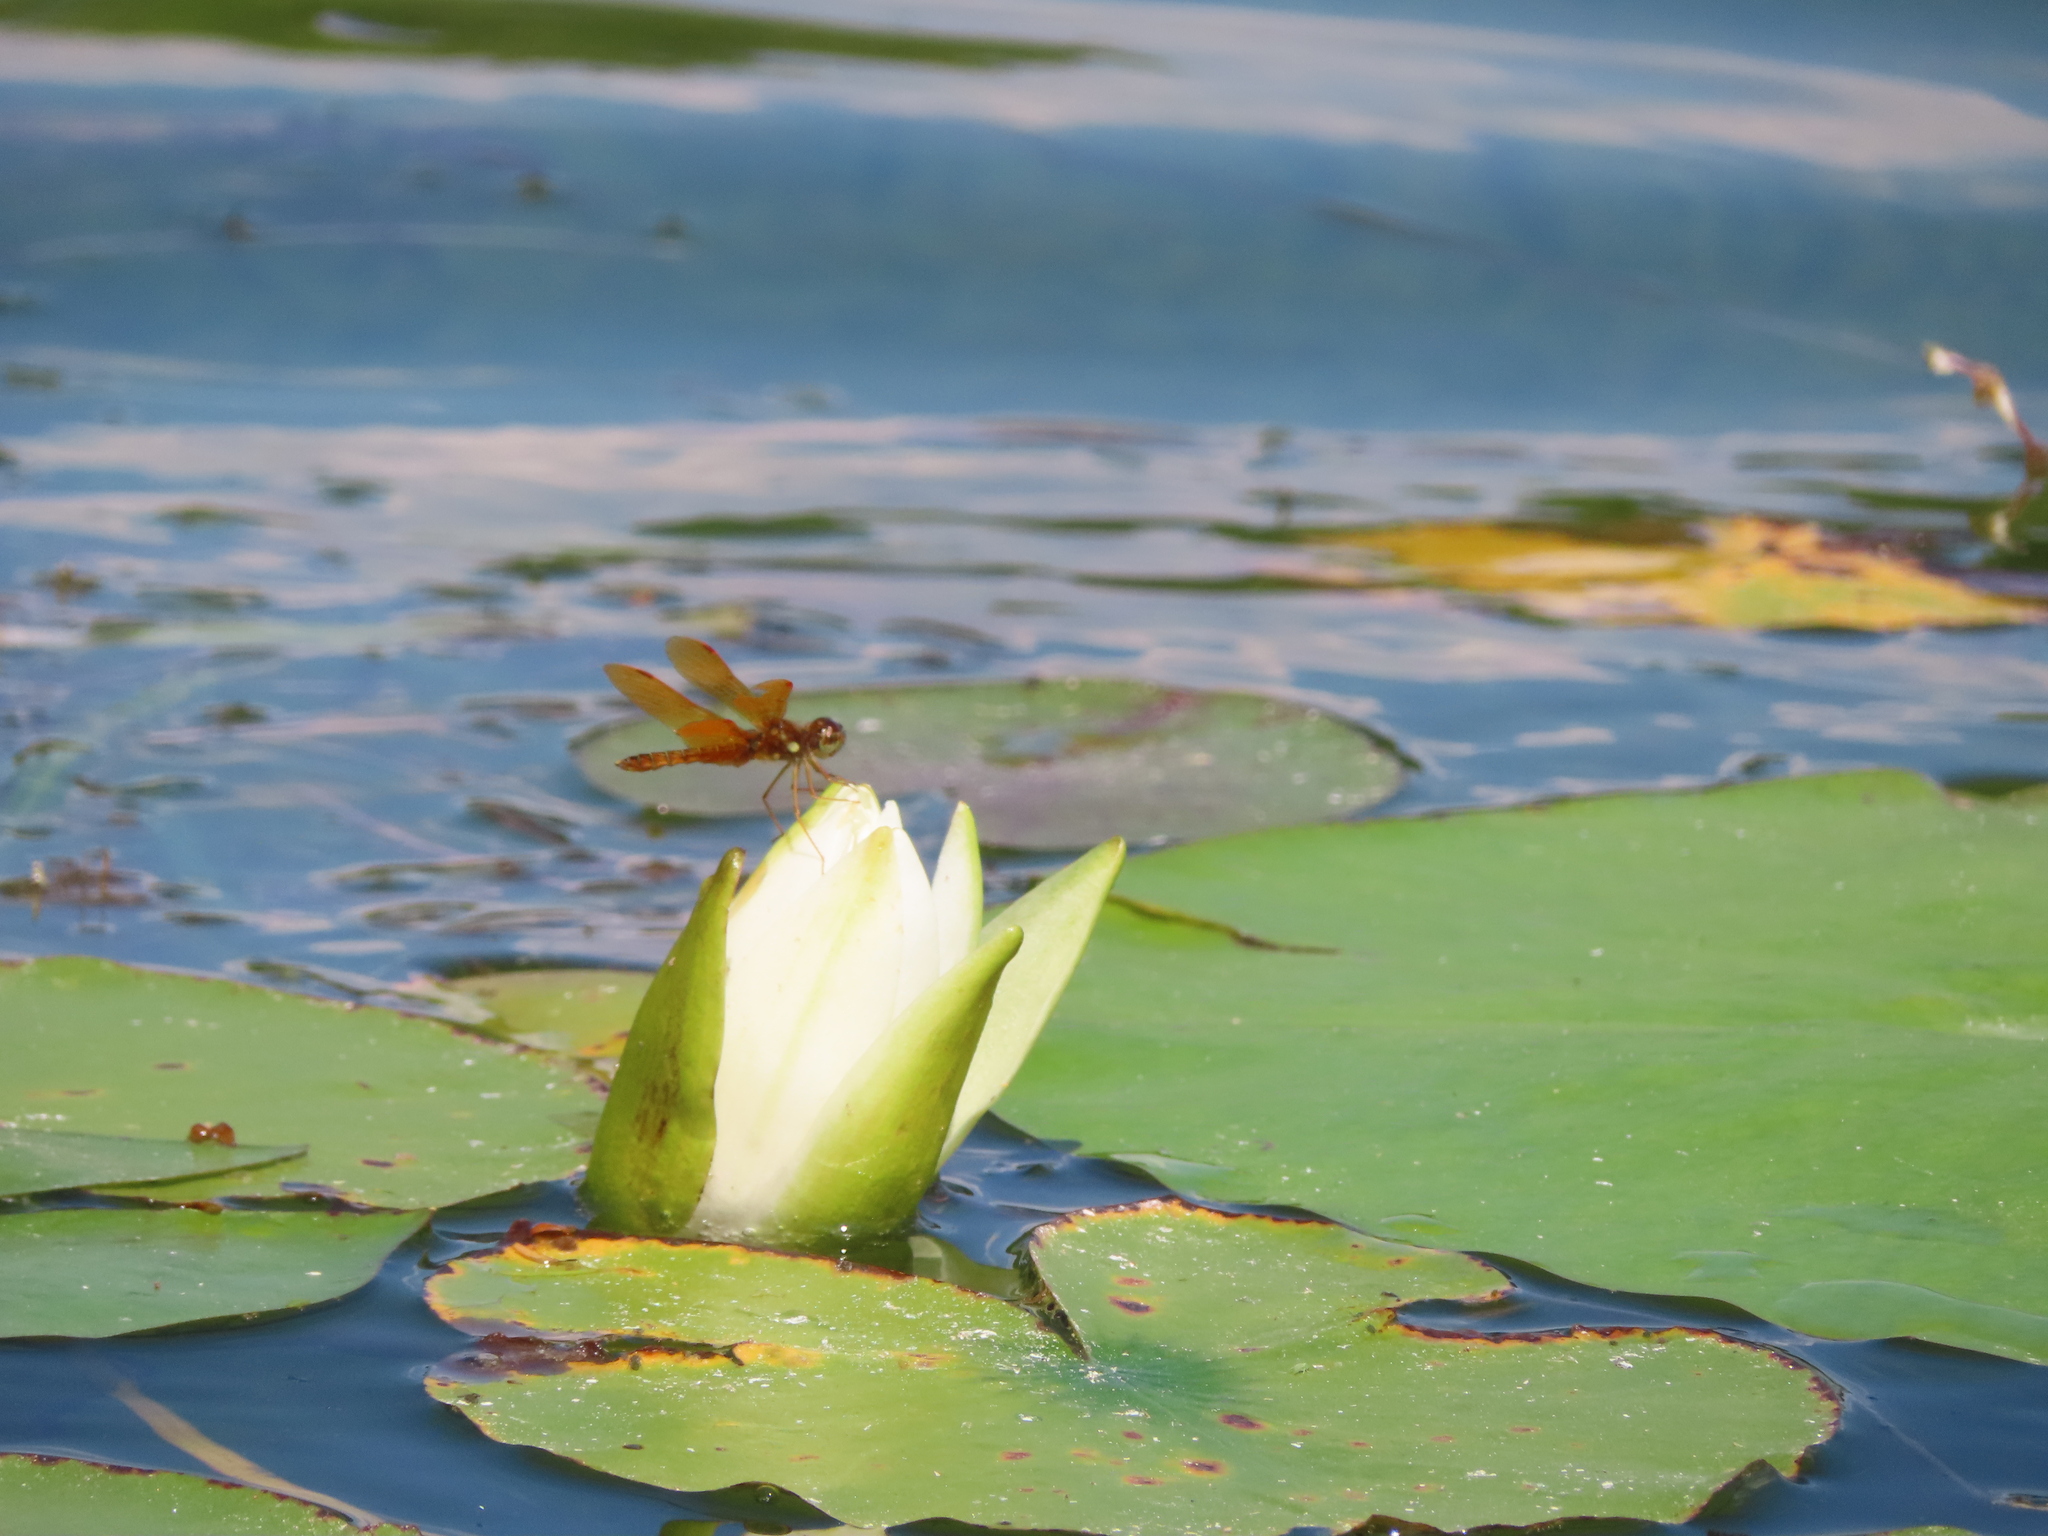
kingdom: Animalia
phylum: Arthropoda
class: Insecta
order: Odonata
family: Libellulidae
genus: Perithemis
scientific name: Perithemis tenera
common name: Eastern amberwing
